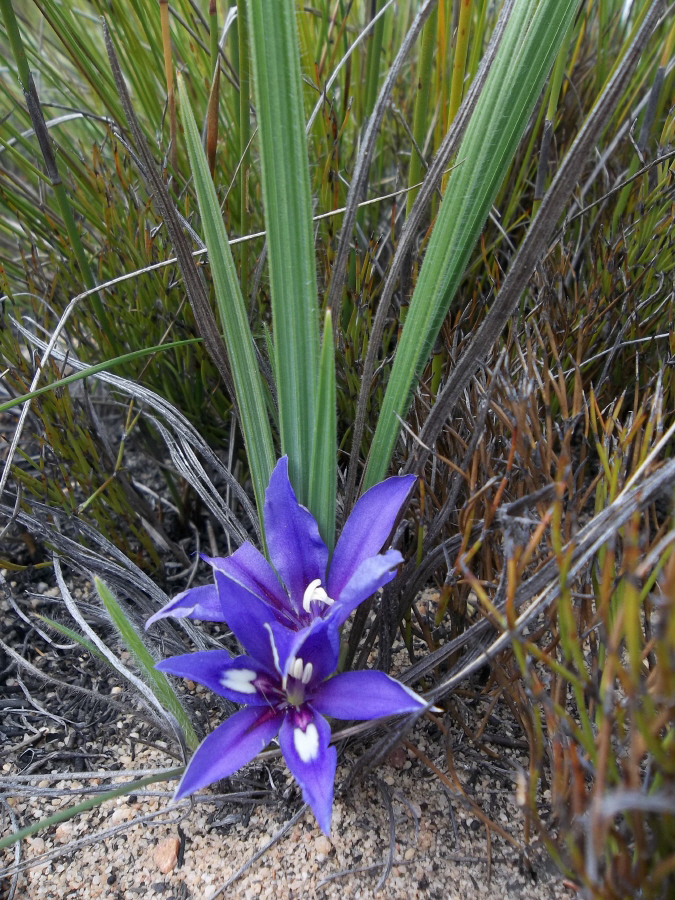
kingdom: Plantae
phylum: Tracheophyta
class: Liliopsida
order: Asparagales
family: Iridaceae
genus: Babiana
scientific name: Babiana sambucina
